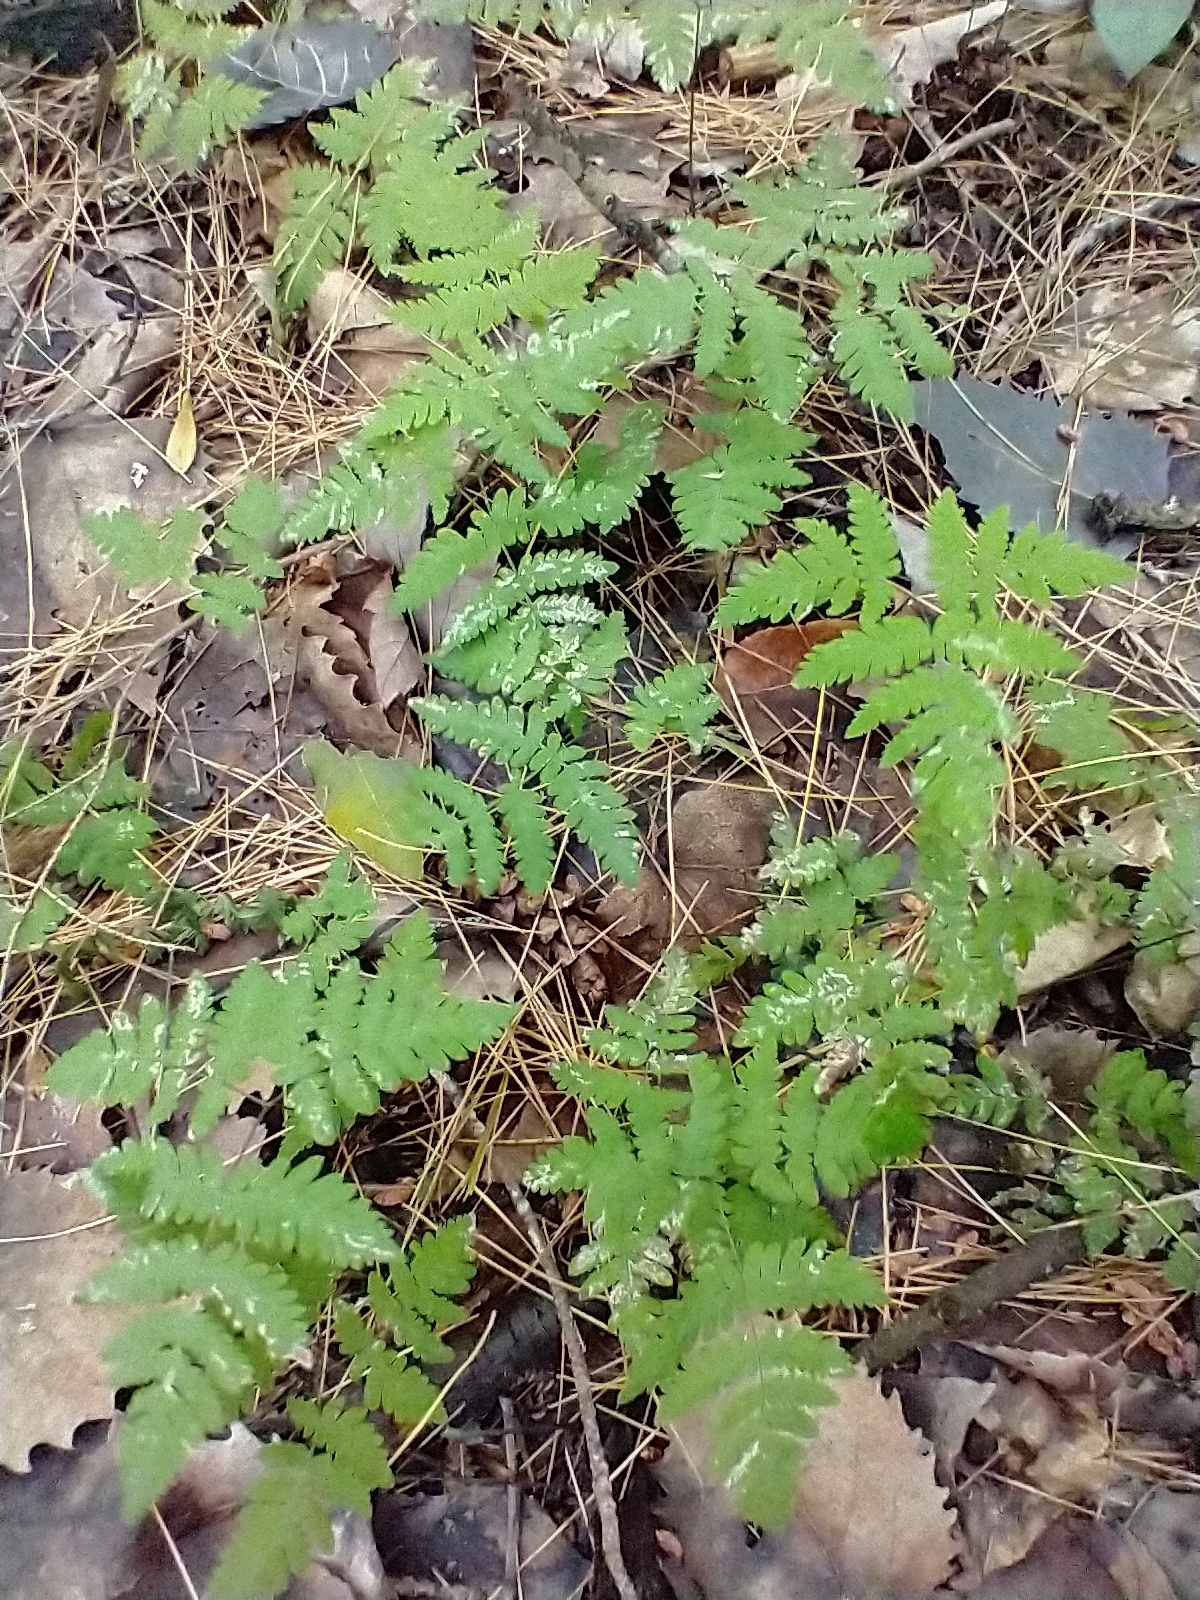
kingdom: Plantae
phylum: Tracheophyta
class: Polypodiopsida
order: Polypodiales
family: Cystopteridaceae
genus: Gymnocarpium
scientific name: Gymnocarpium dryopteris
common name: Oak fern
